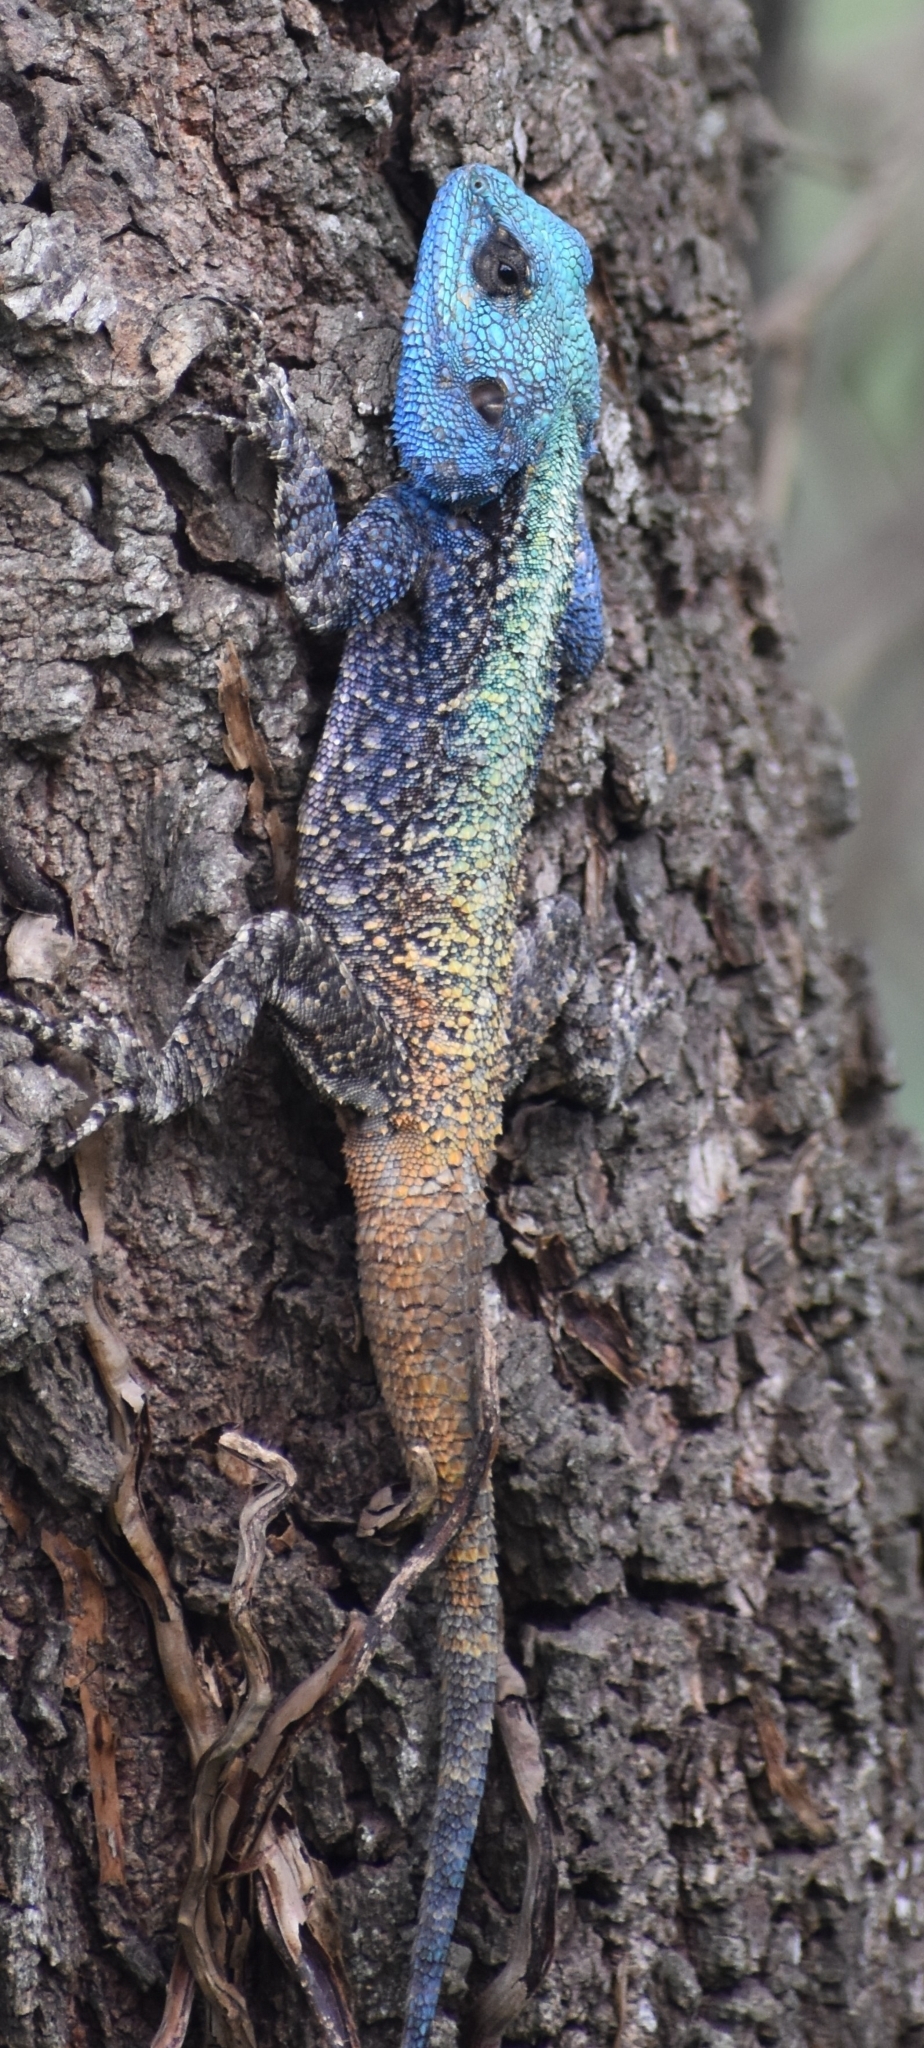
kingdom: Animalia
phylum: Chordata
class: Squamata
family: Agamidae
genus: Acanthocercus
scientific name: Acanthocercus atricollis
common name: Southern tree agama
